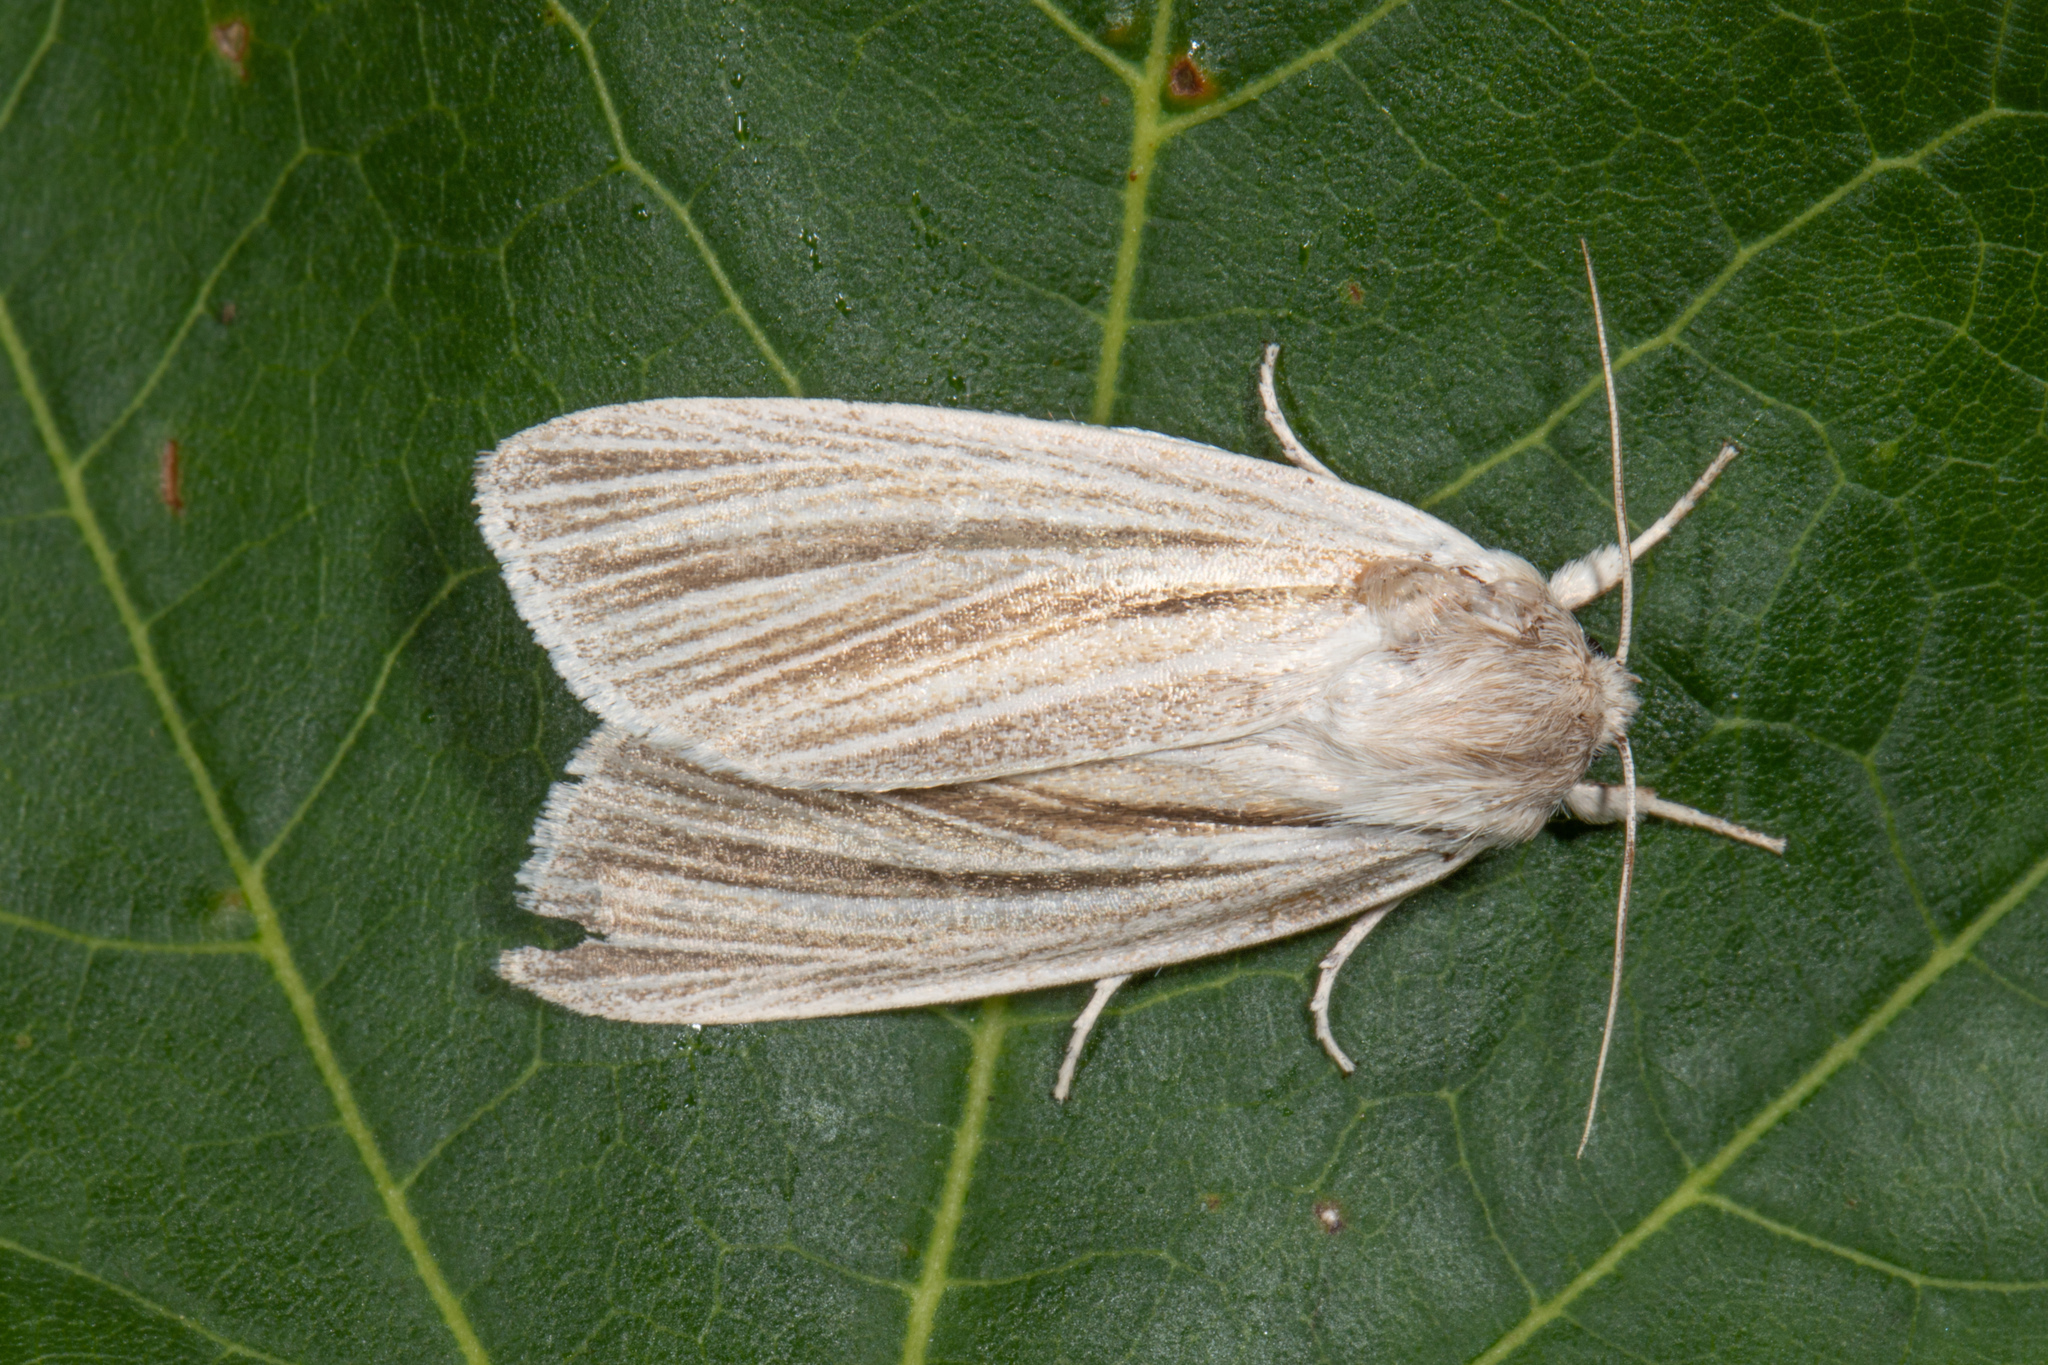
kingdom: Animalia
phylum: Arthropoda
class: Insecta
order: Lepidoptera
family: Noctuidae
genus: Acronicta
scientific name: Acronicta insularis
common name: Henry's marsh moth
